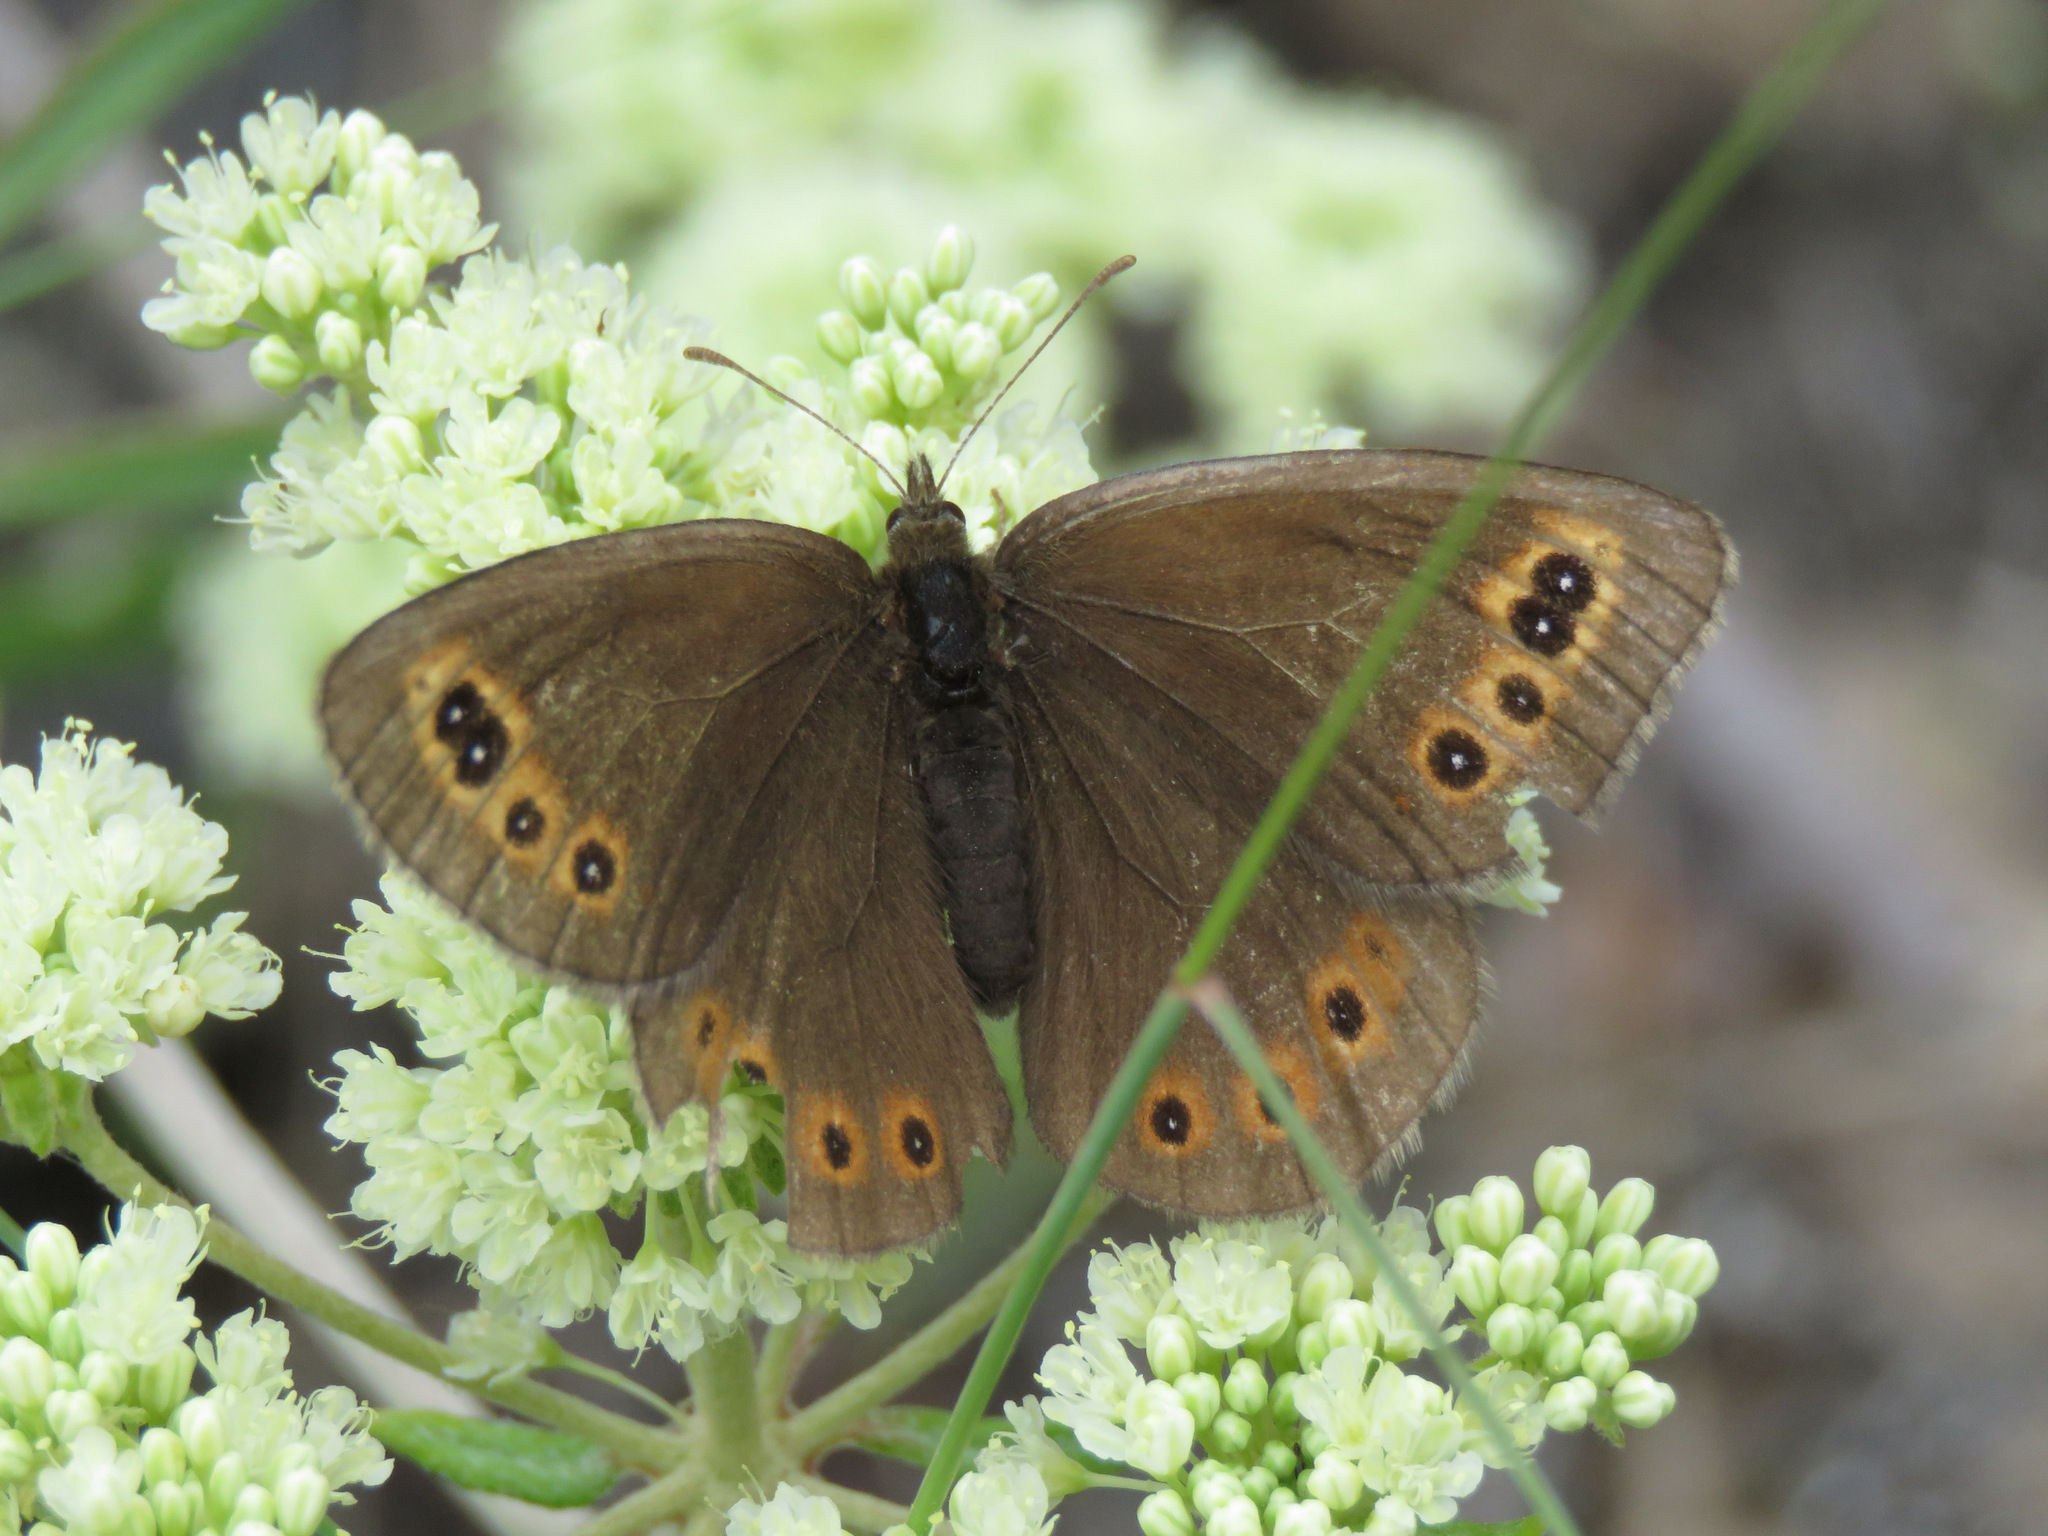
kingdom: Animalia
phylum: Arthropoda
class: Insecta
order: Lepidoptera
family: Nymphalidae
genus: Erebia
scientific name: Erebia epipsodea
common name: Common alpine
